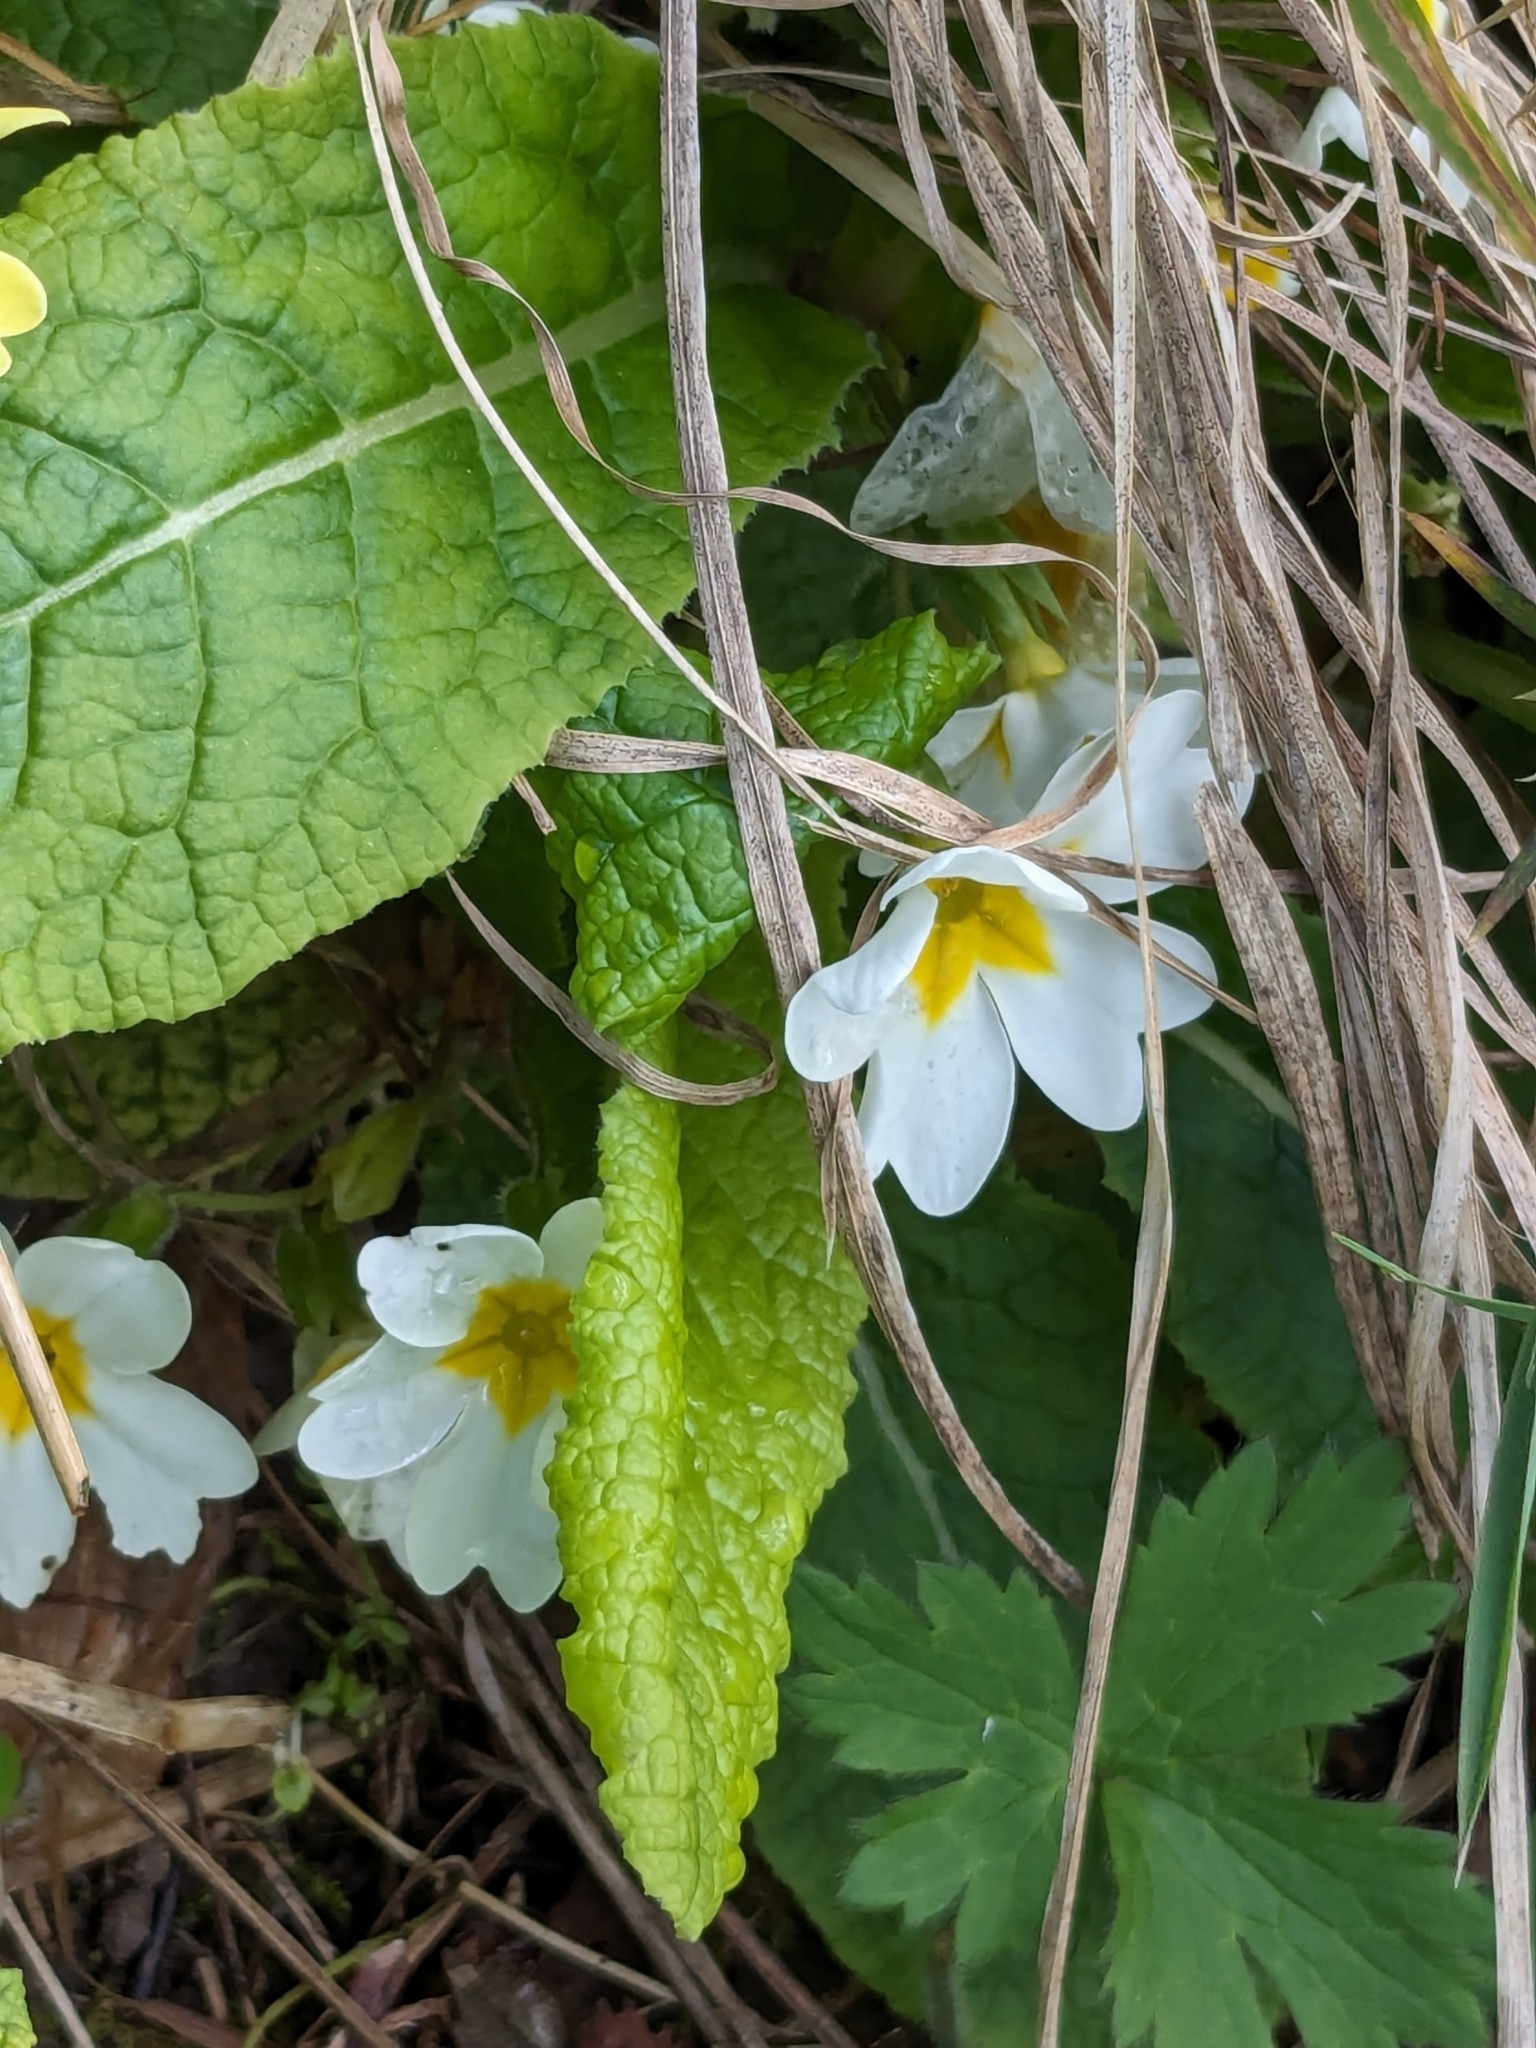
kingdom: Plantae
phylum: Tracheophyta
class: Magnoliopsida
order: Ericales
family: Primulaceae
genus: Primula
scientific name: Primula vulgaris
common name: Primrose
